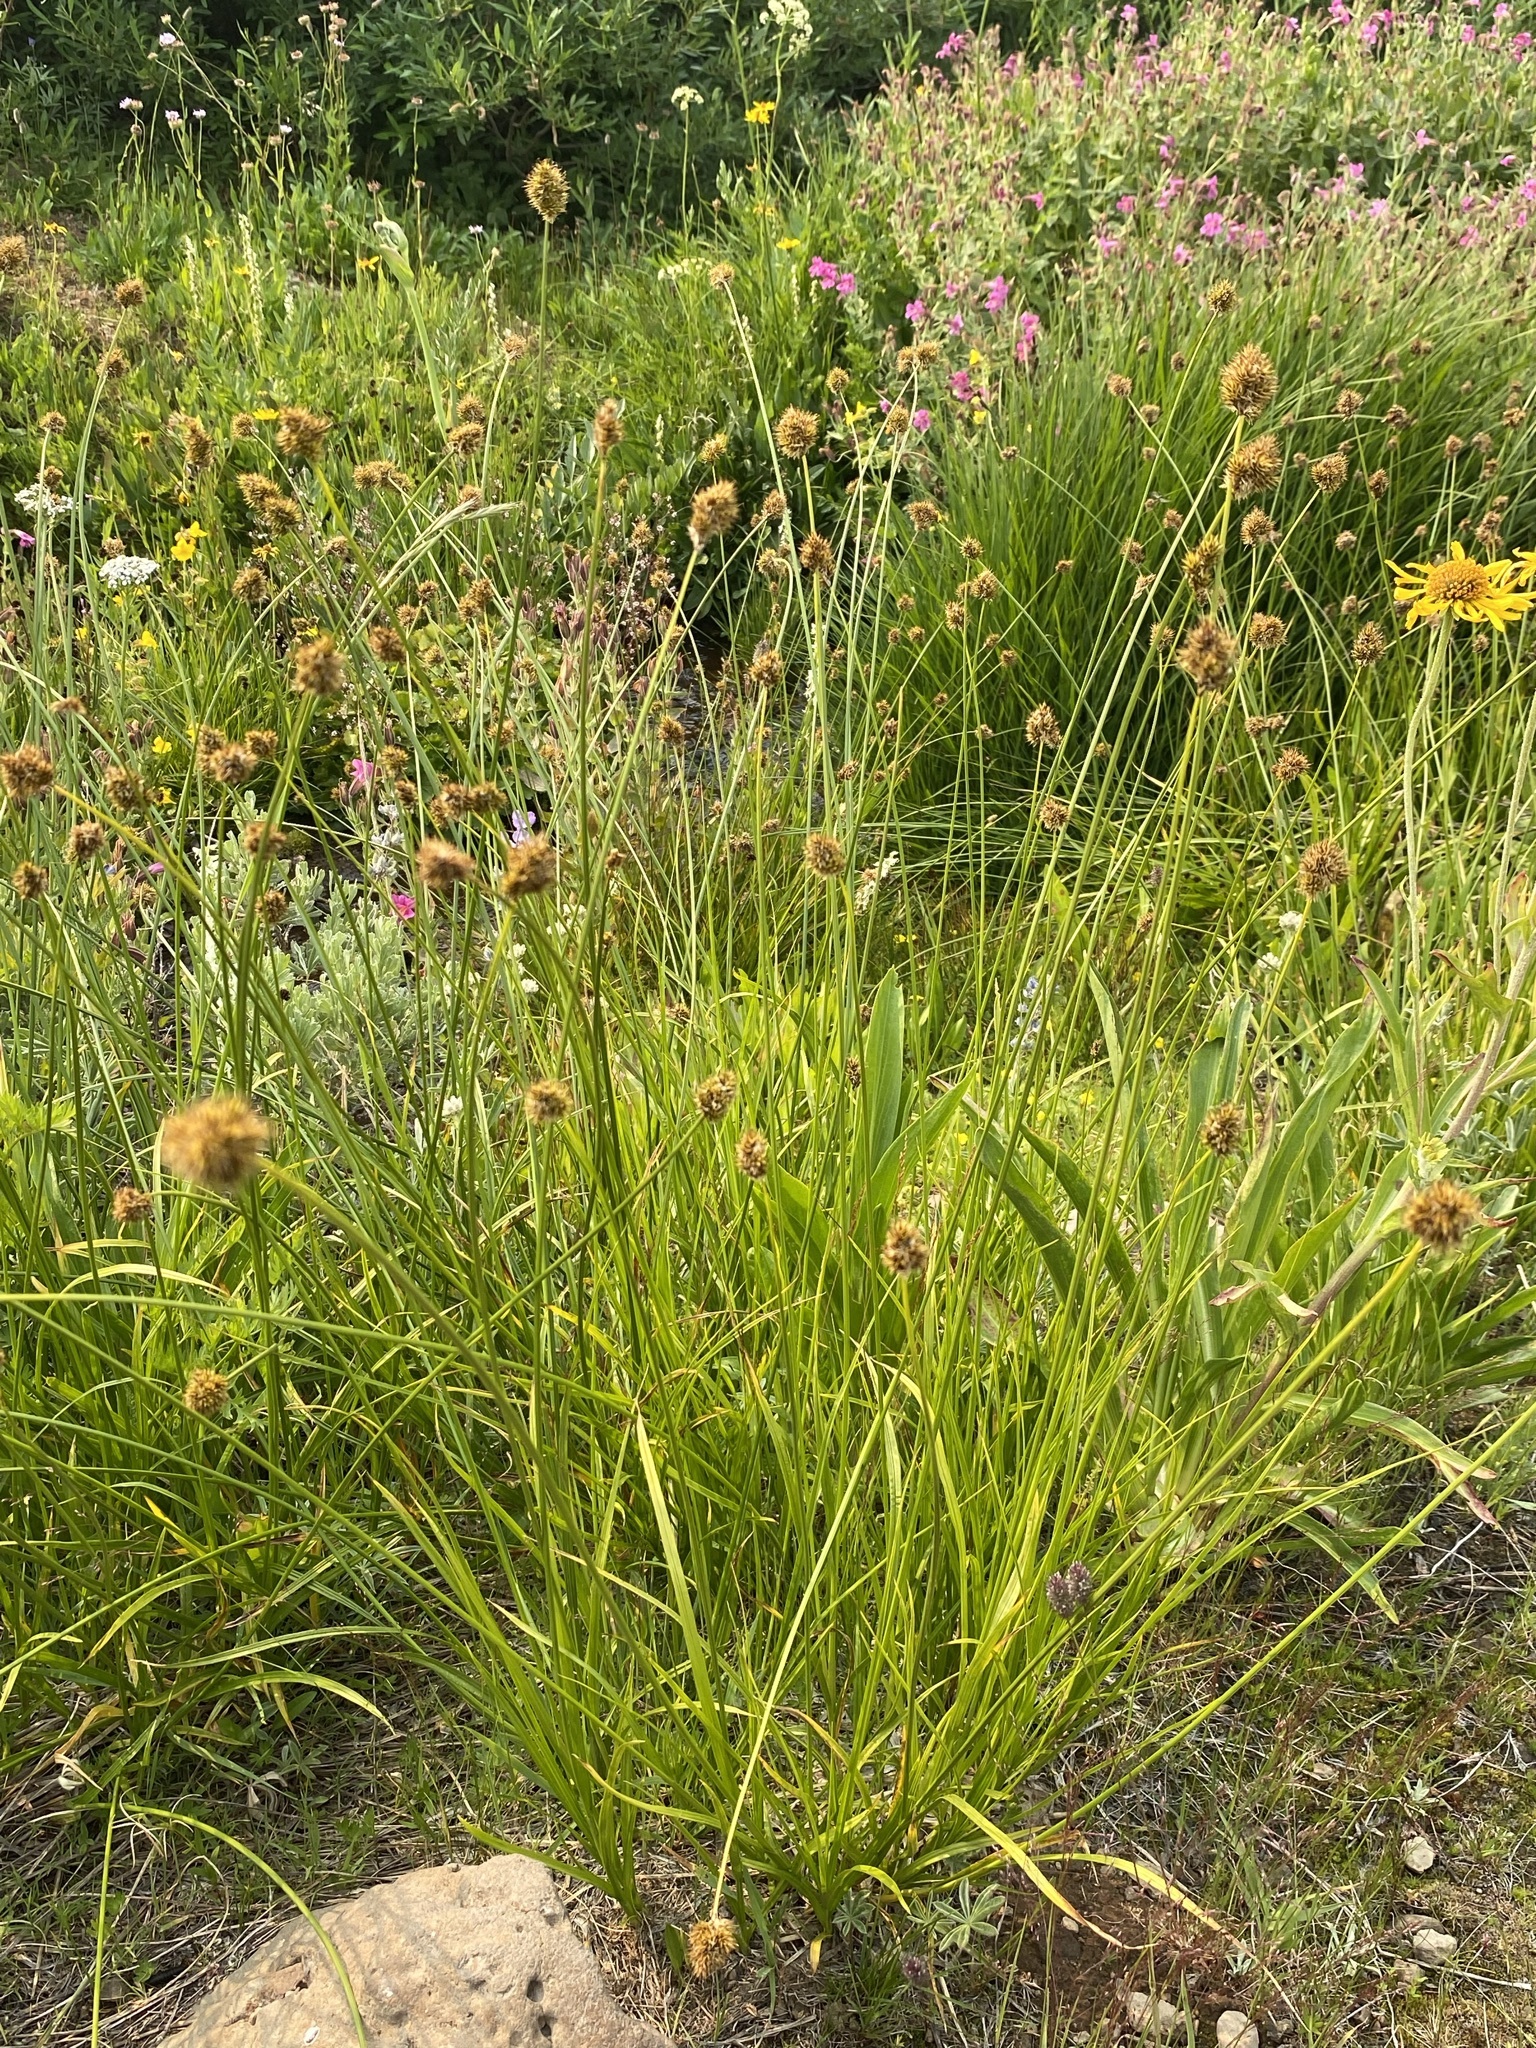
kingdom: Plantae
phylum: Tracheophyta
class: Liliopsida
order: Poales
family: Cyperaceae
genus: Carex
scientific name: Carex haydeniana
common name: Cloud sedge
